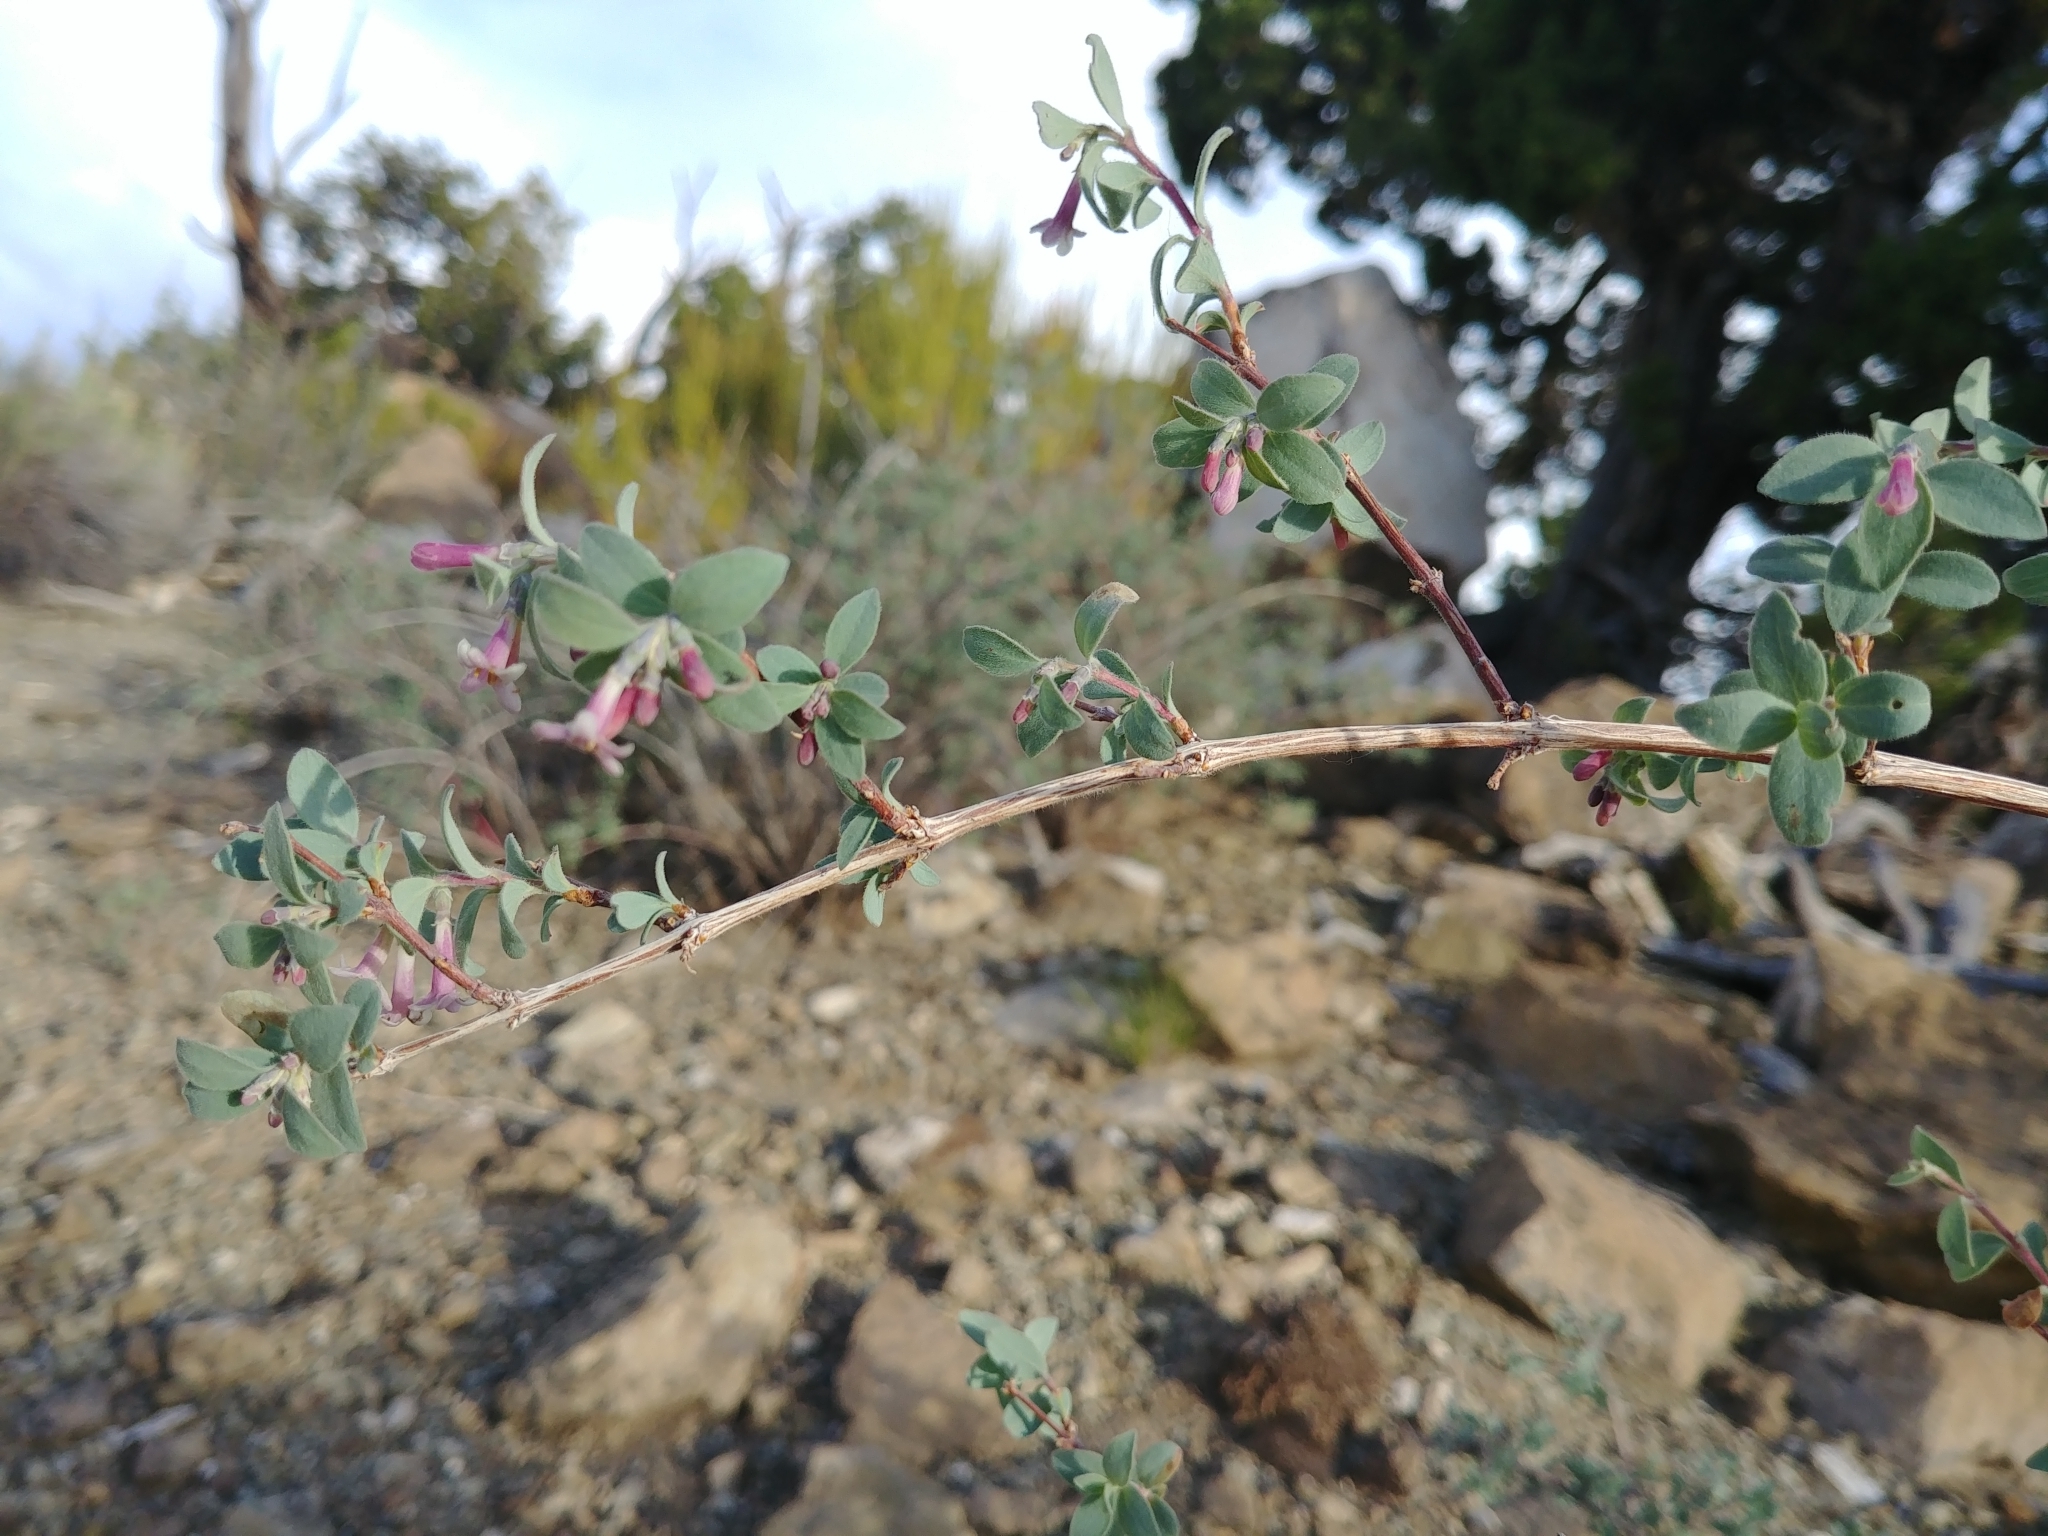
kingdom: Plantae
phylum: Tracheophyta
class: Magnoliopsida
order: Dipsacales
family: Caprifoliaceae
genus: Symphoricarpos
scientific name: Symphoricarpos longiflorus
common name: Fragrant snowberry
